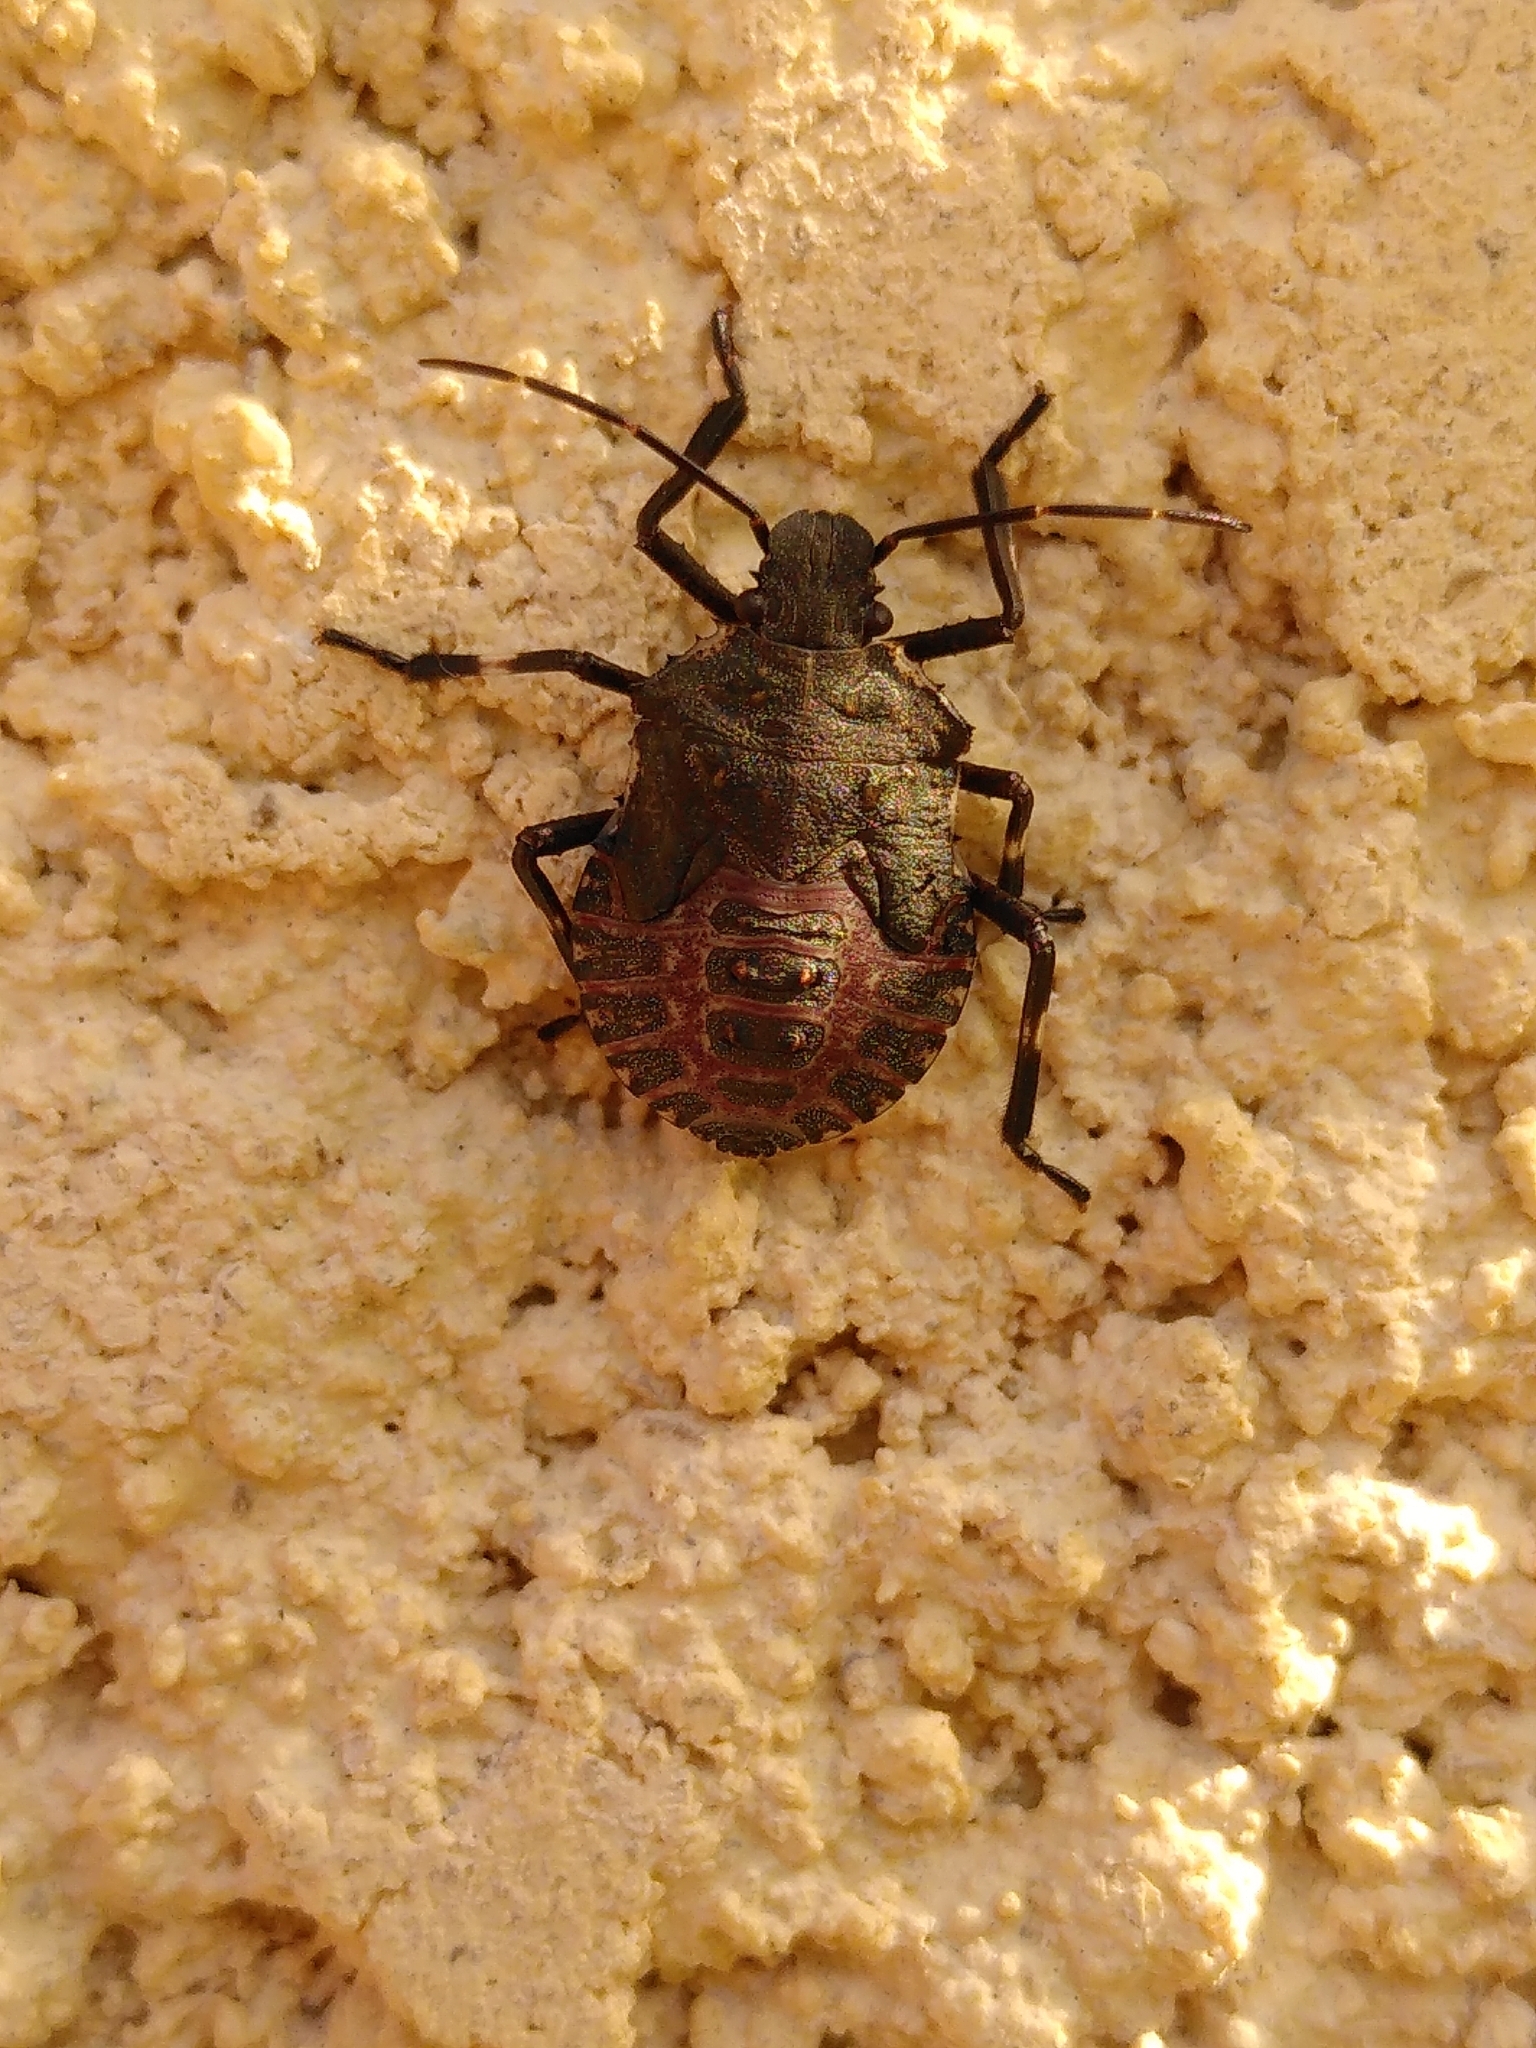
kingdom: Animalia
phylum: Arthropoda
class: Insecta
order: Hemiptera
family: Pentatomidae
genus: Halyomorpha
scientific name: Halyomorpha halys
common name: Brown marmorated stink bug
